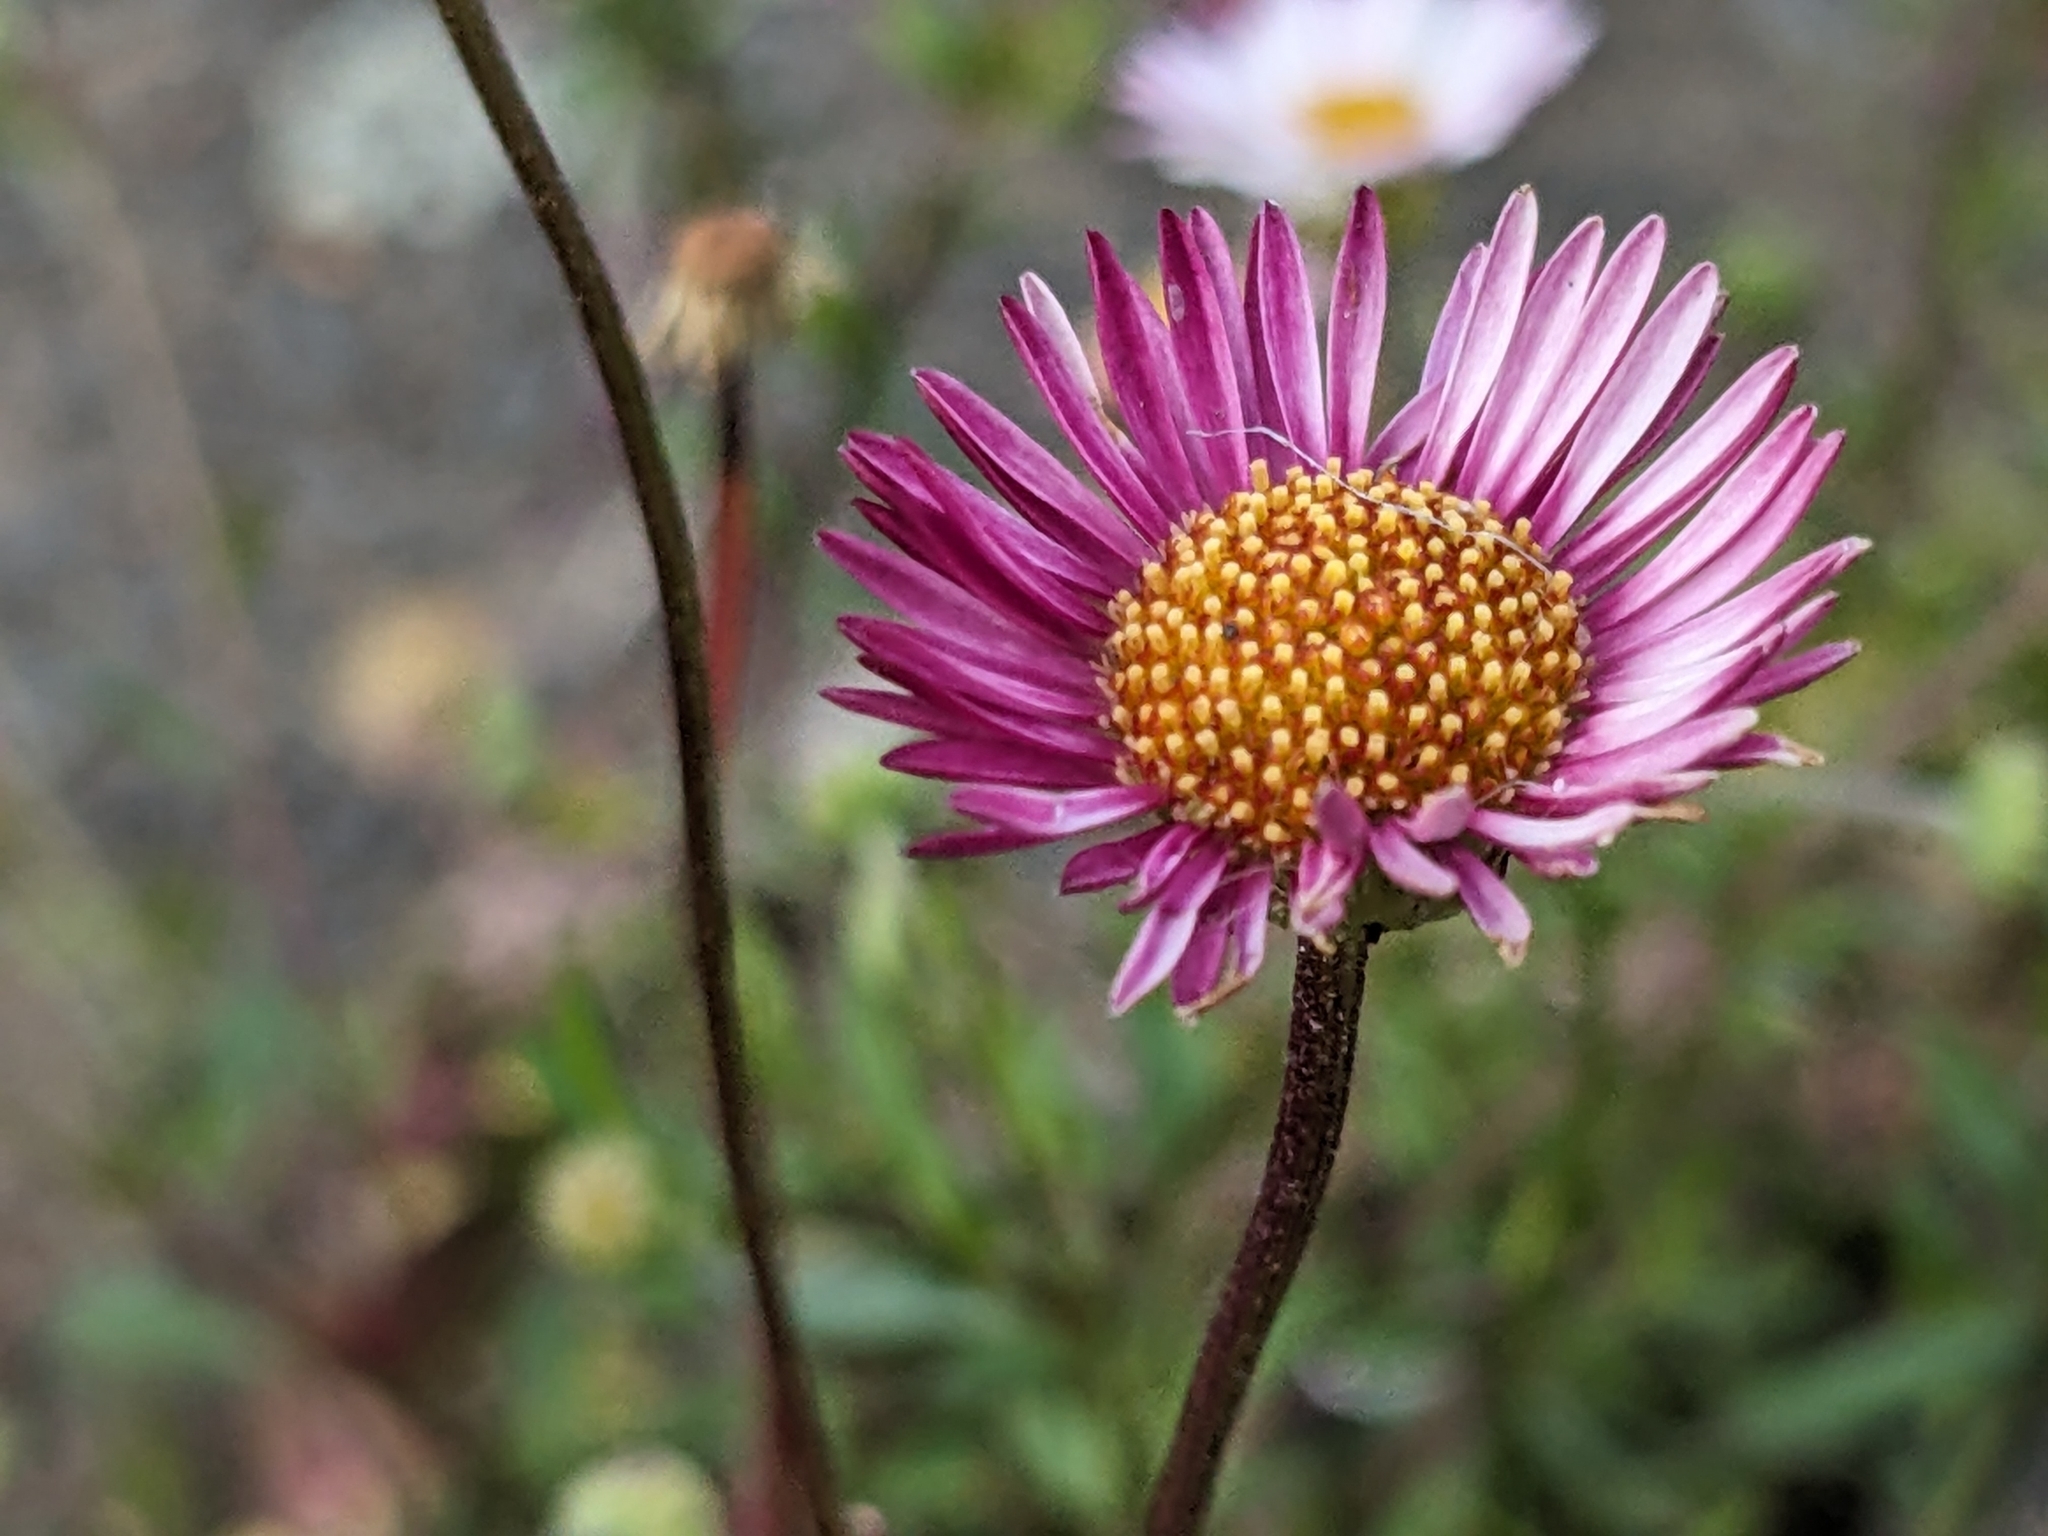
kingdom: Plantae
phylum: Tracheophyta
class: Magnoliopsida
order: Asterales
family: Asteraceae
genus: Erigeron
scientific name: Erigeron karvinskianus
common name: Mexican fleabane
